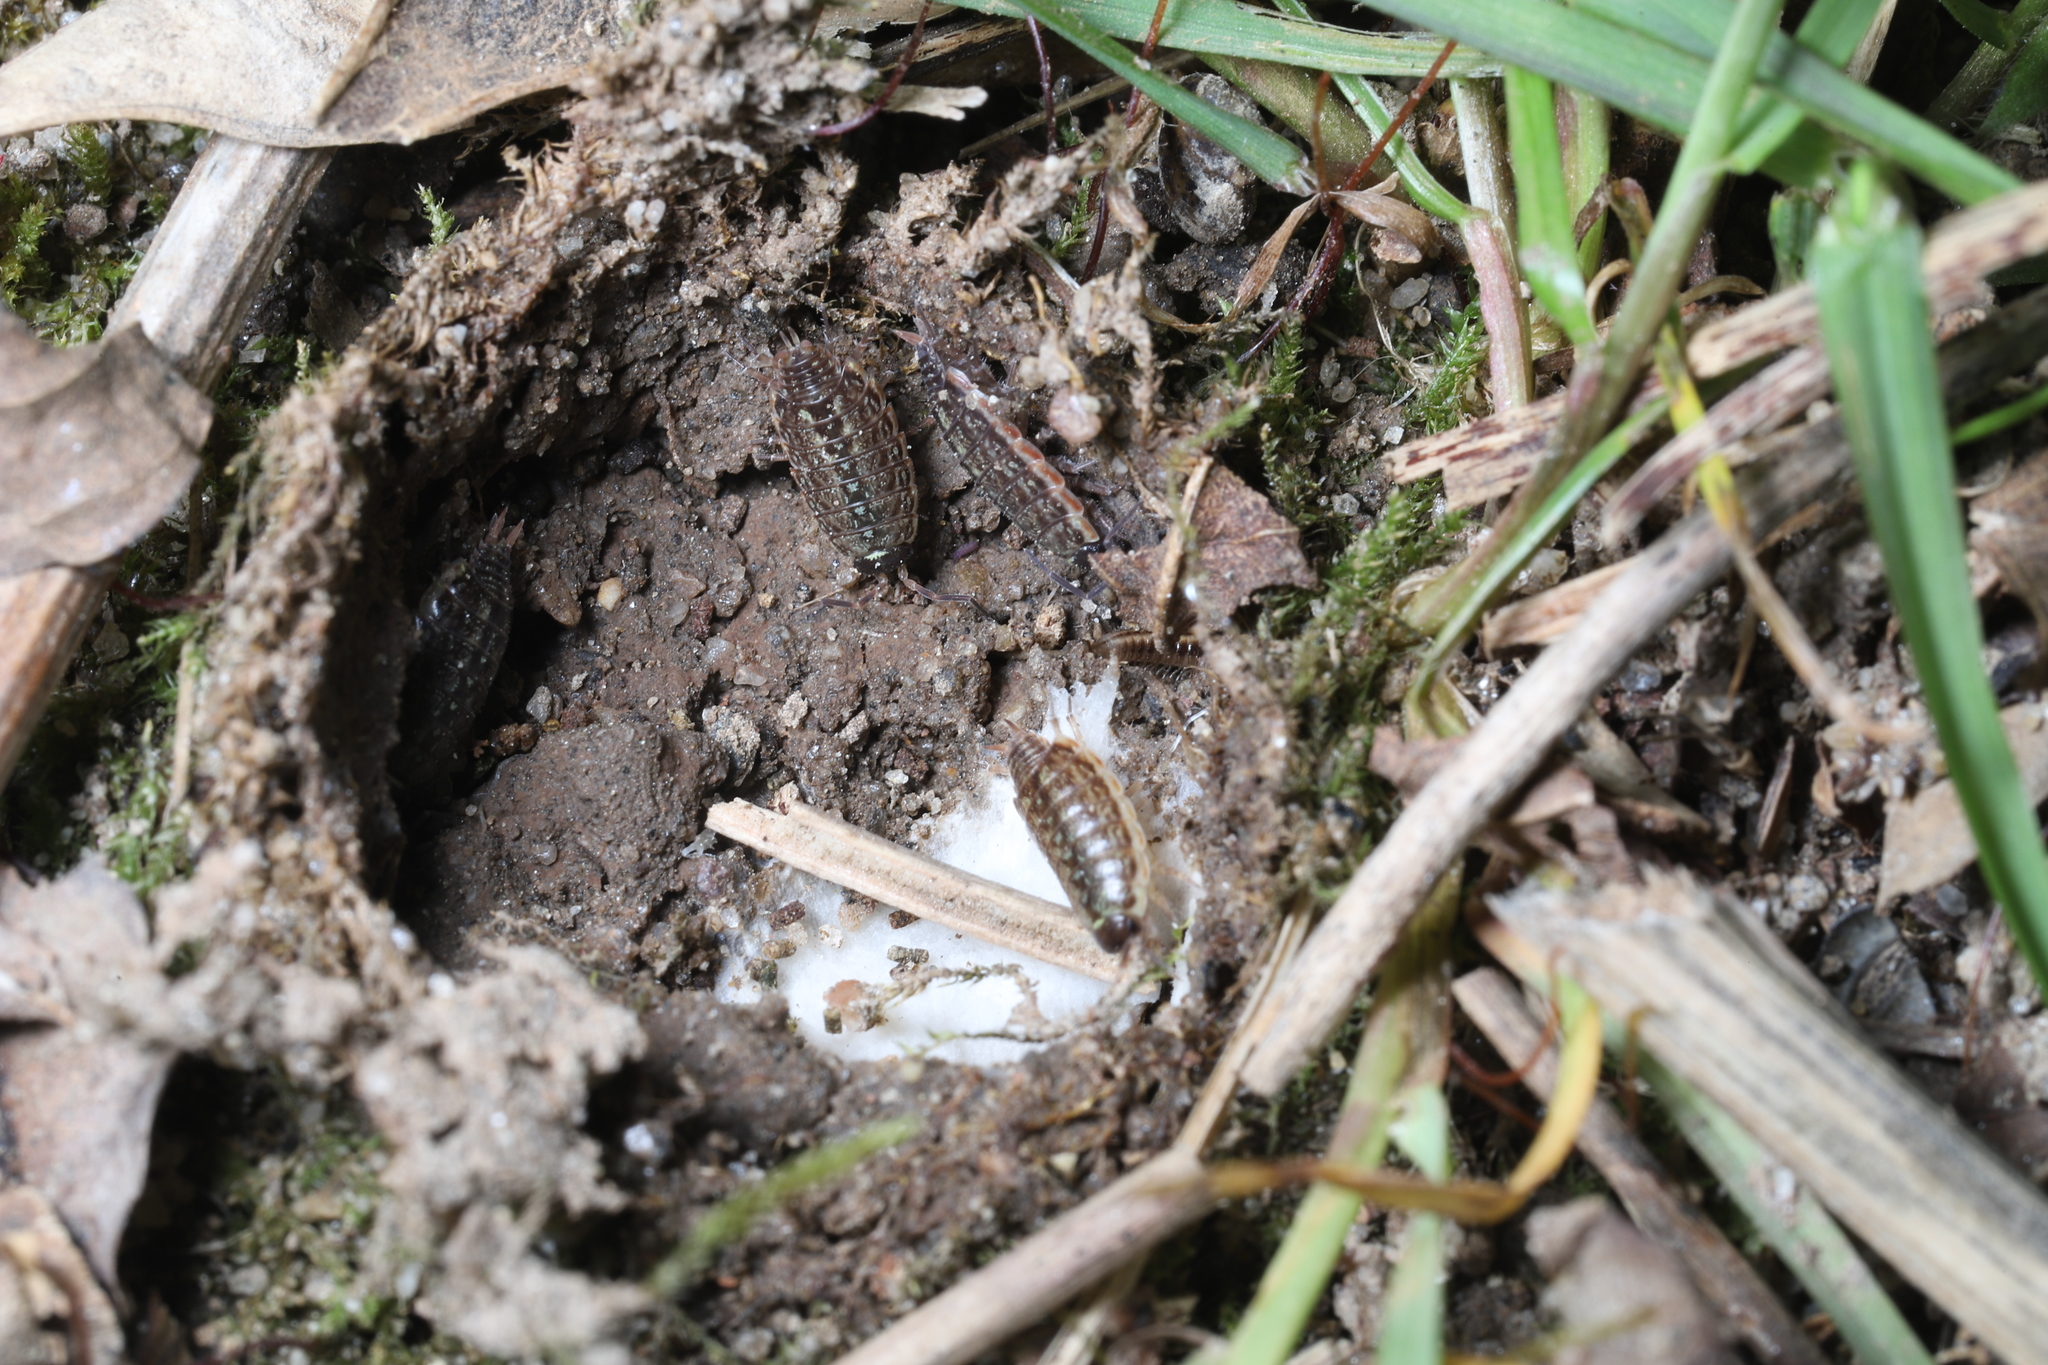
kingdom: Animalia
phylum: Arthropoda
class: Malacostraca
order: Isopoda
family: Philosciidae
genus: Philoscia
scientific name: Philoscia muscorum
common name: Common striped woodlouse
